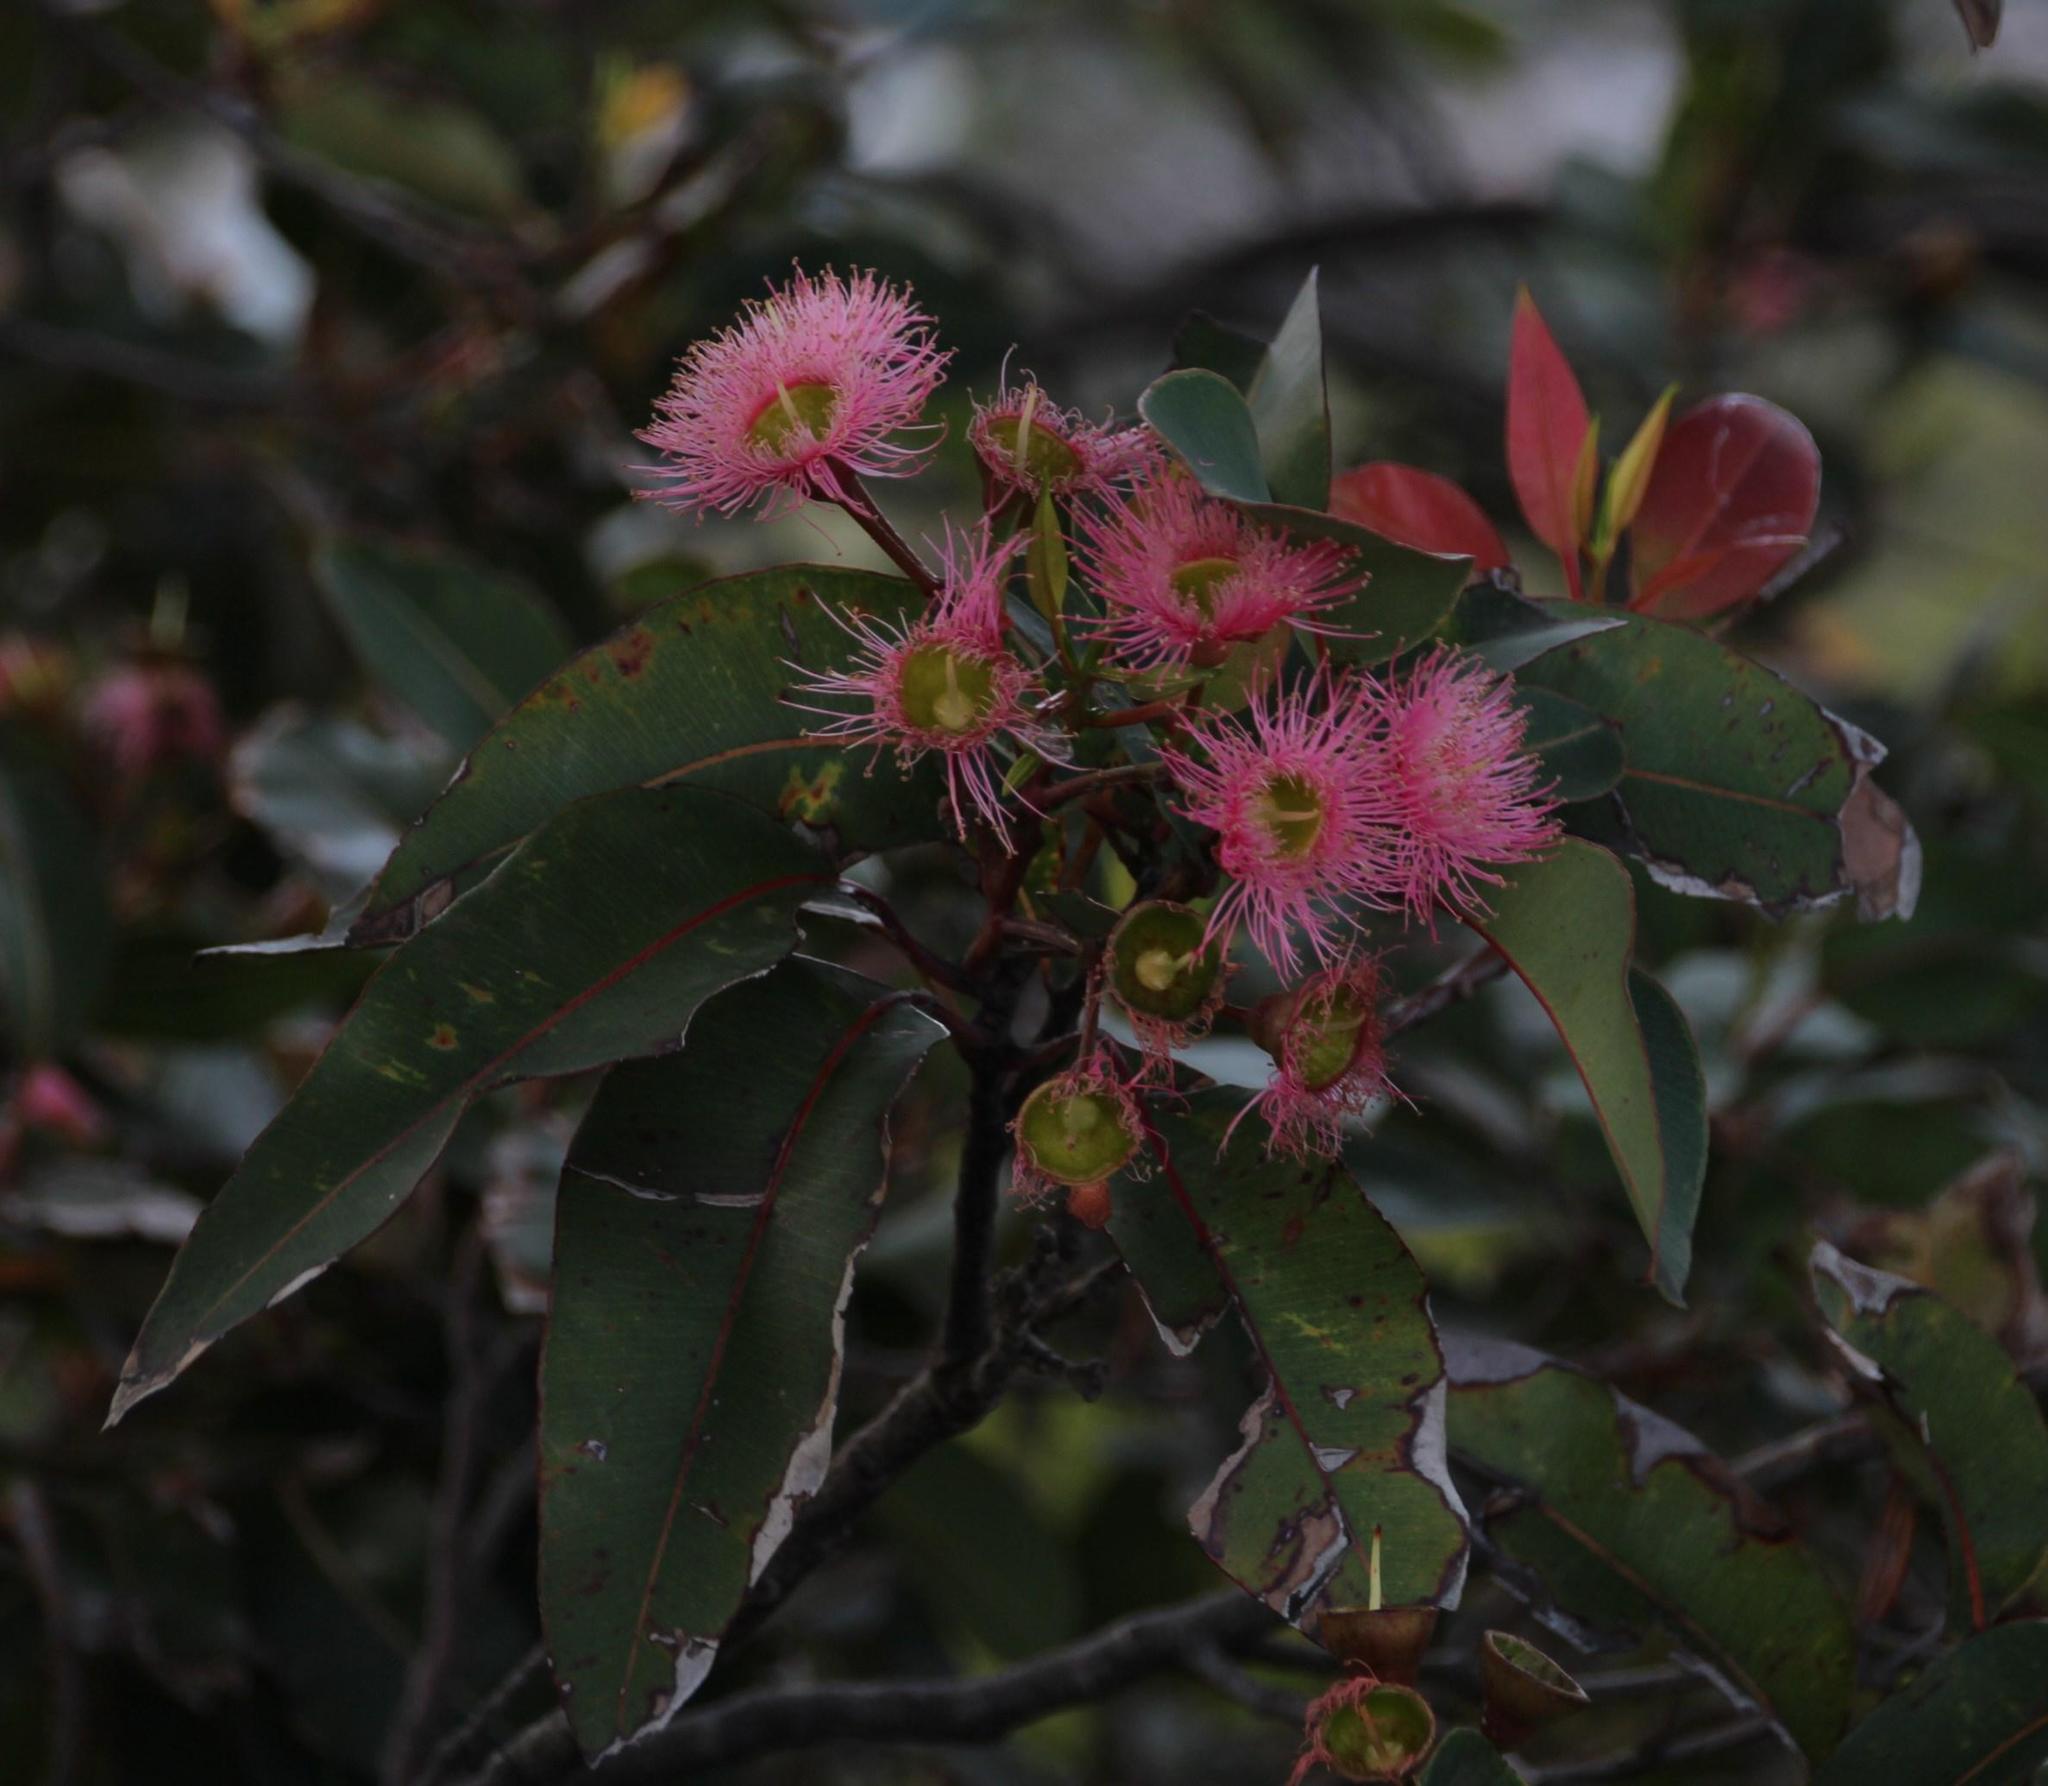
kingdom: Plantae
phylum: Tracheophyta
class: Magnoliopsida
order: Myrtales
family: Myrtaceae
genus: Corymbia
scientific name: Corymbia ficifolia
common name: Redflower gum
